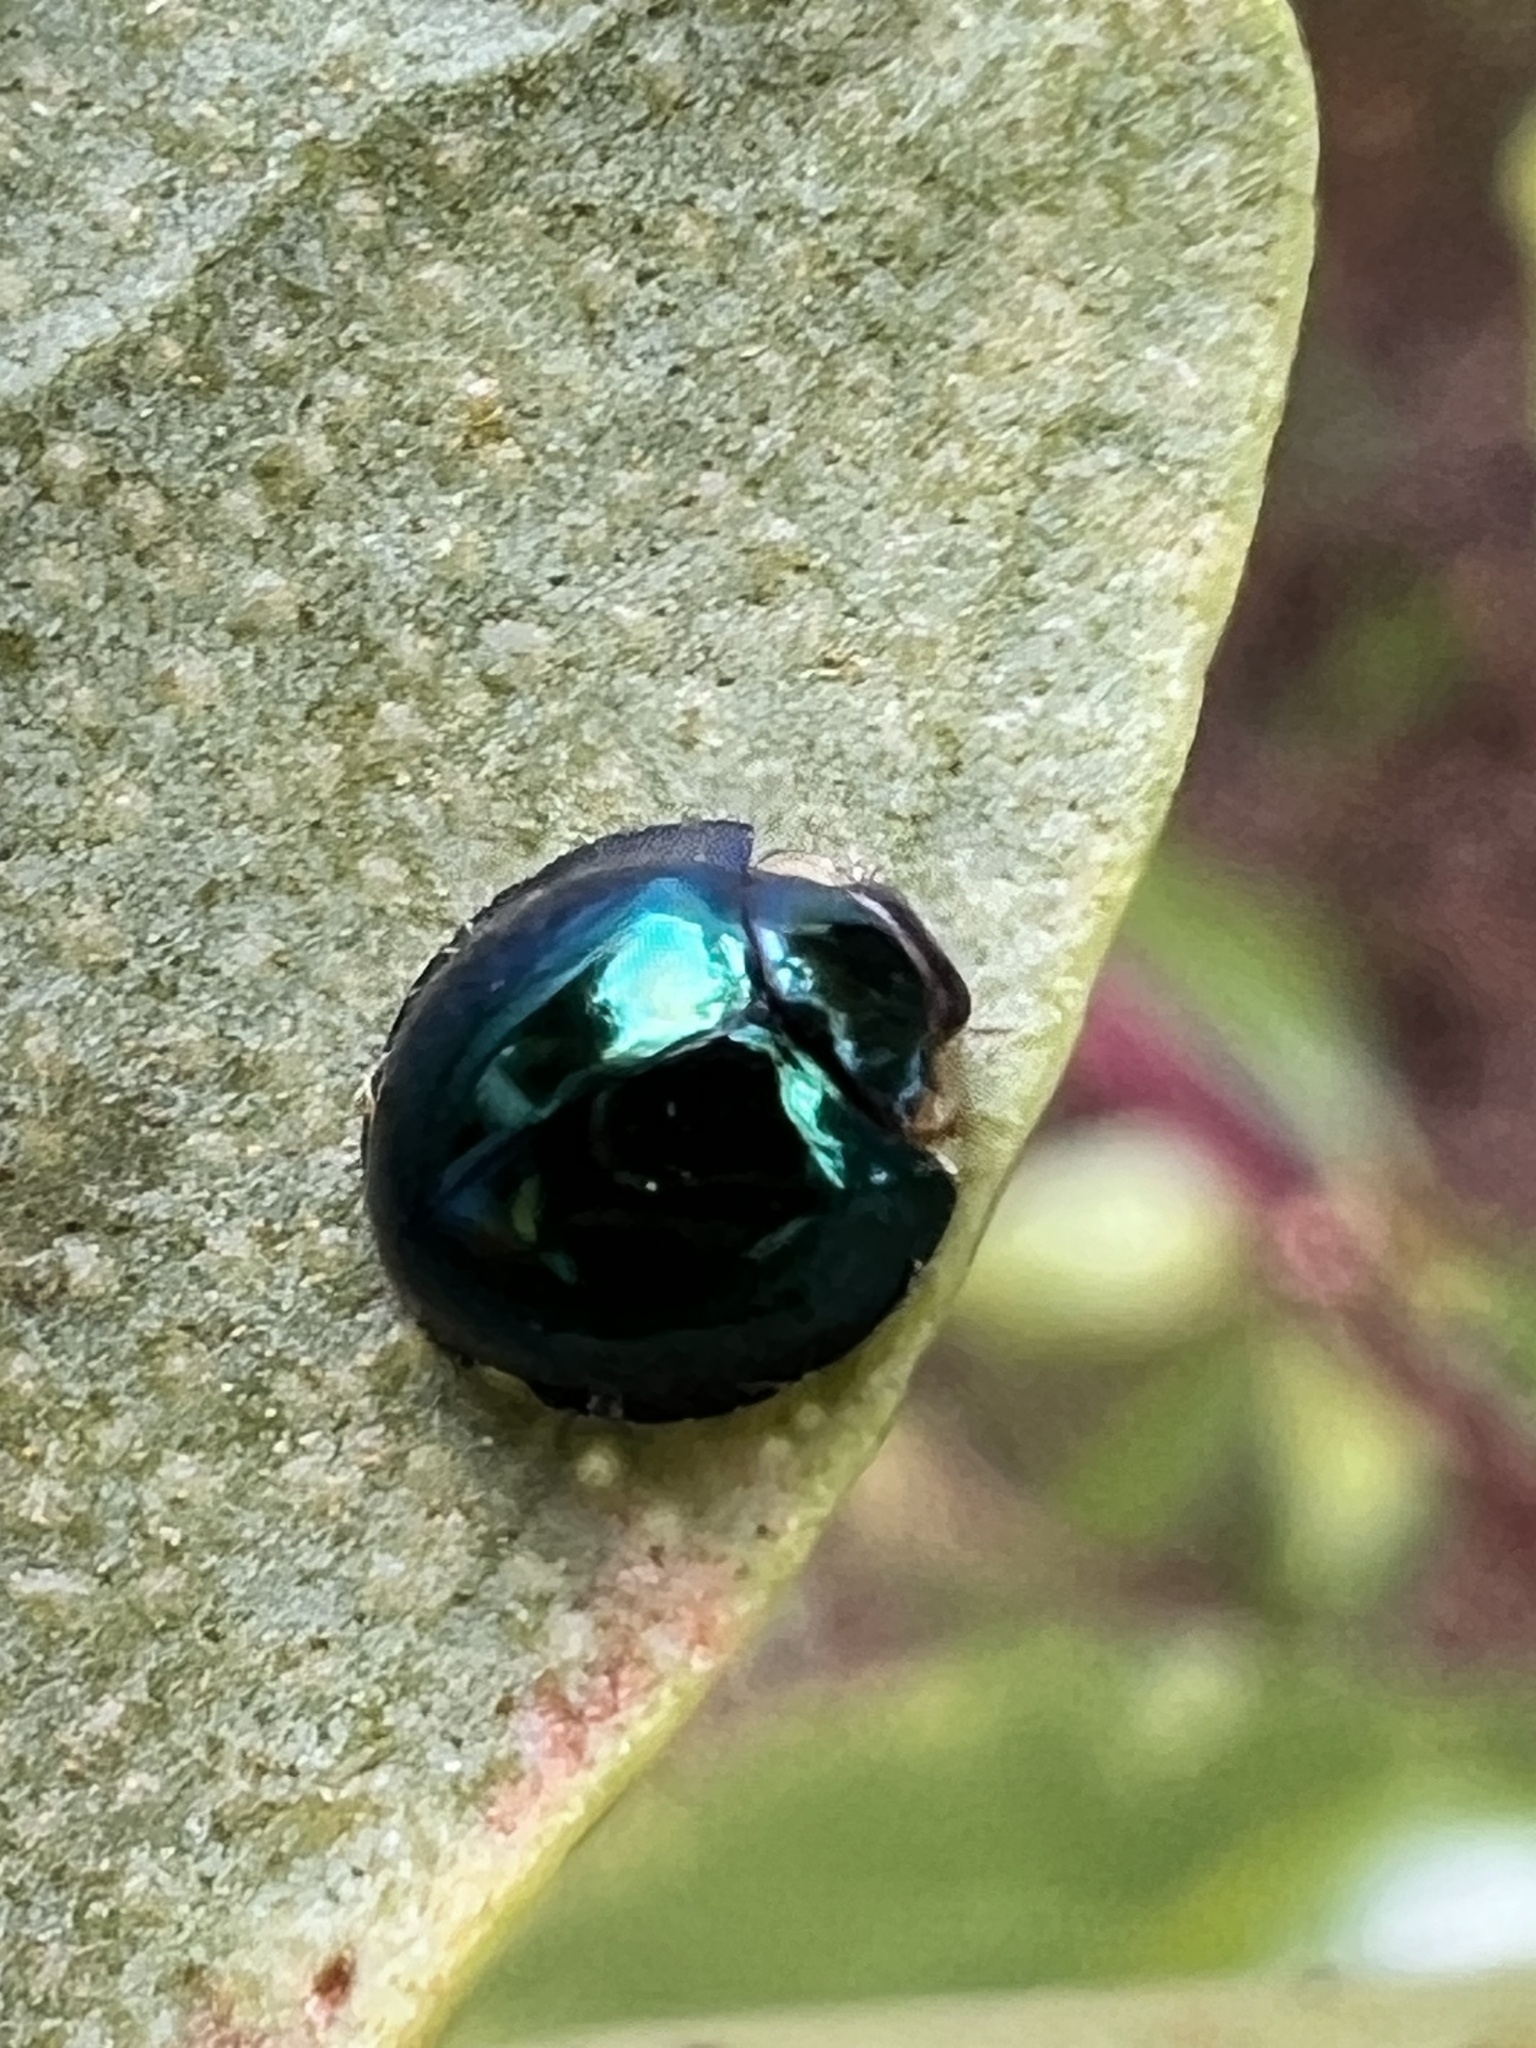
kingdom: Animalia
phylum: Arthropoda
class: Insecta
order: Coleoptera
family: Coccinellidae
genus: Halmus
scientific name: Halmus chalybeus
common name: Steel blue ladybird beetle
